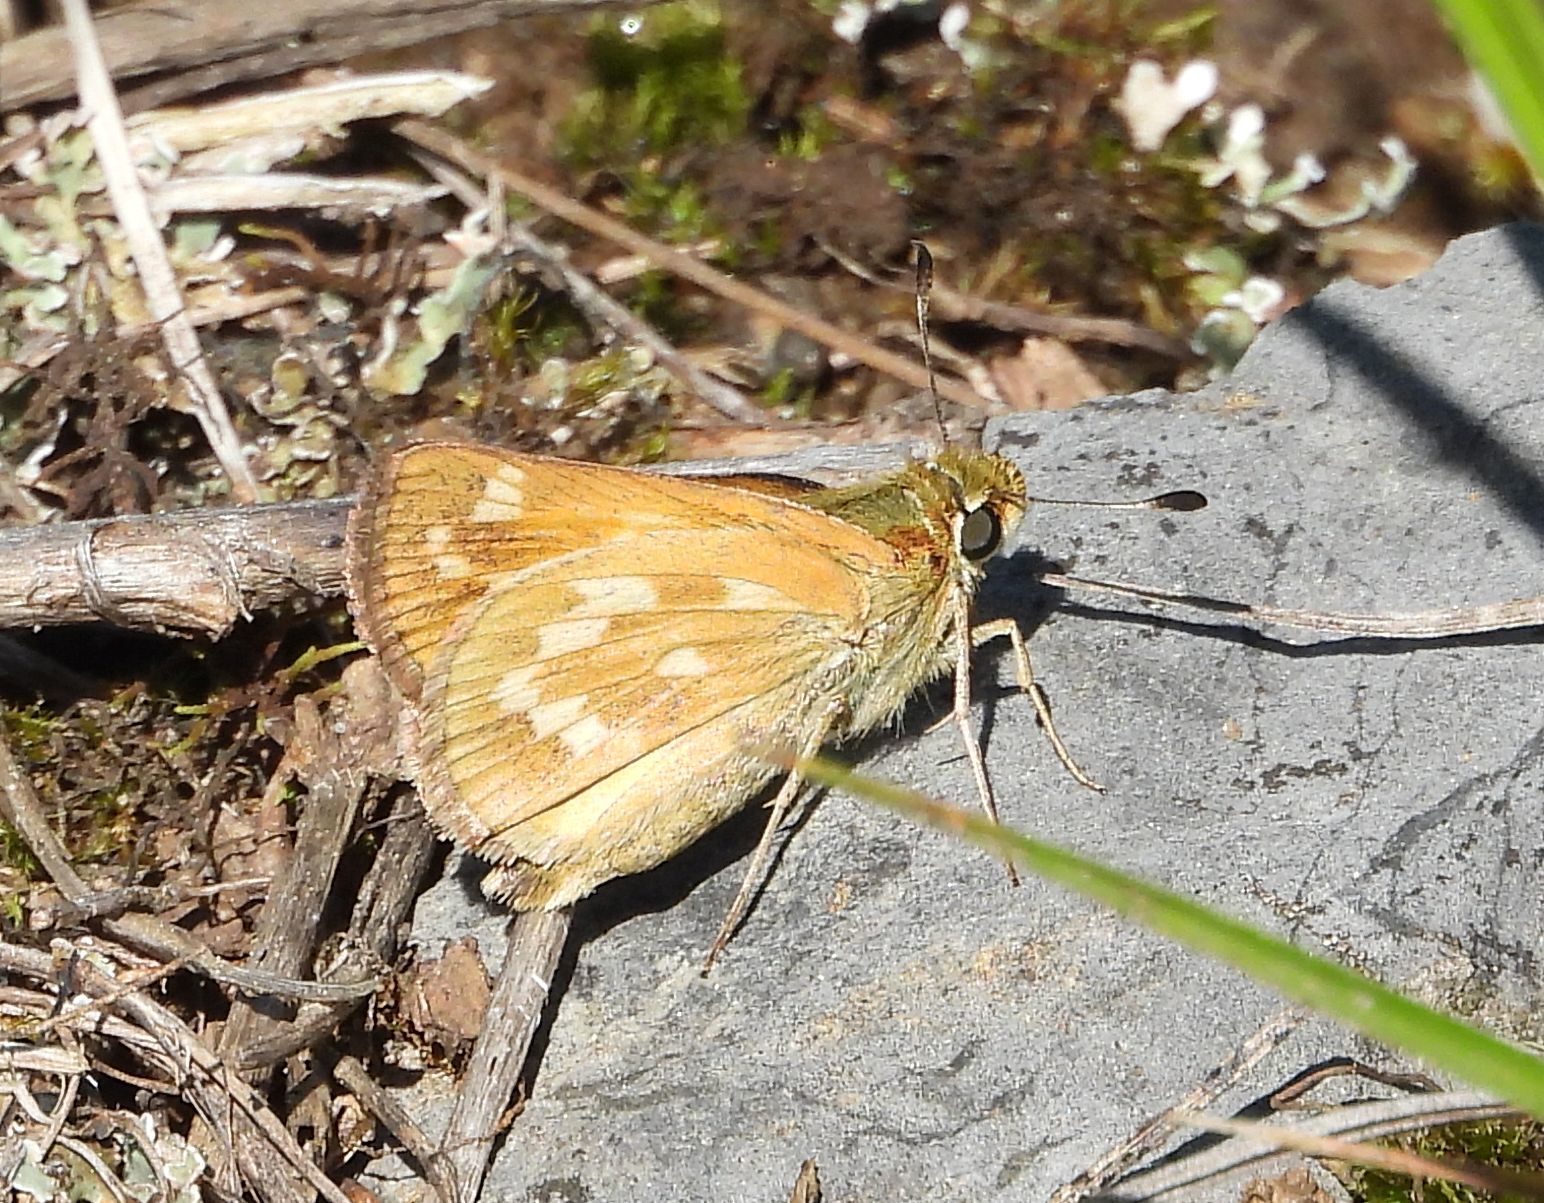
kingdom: Animalia
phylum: Arthropoda
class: Insecta
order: Lepidoptera
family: Hesperiidae
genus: Hesperia
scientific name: Hesperia sassacus
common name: Indian skipper
